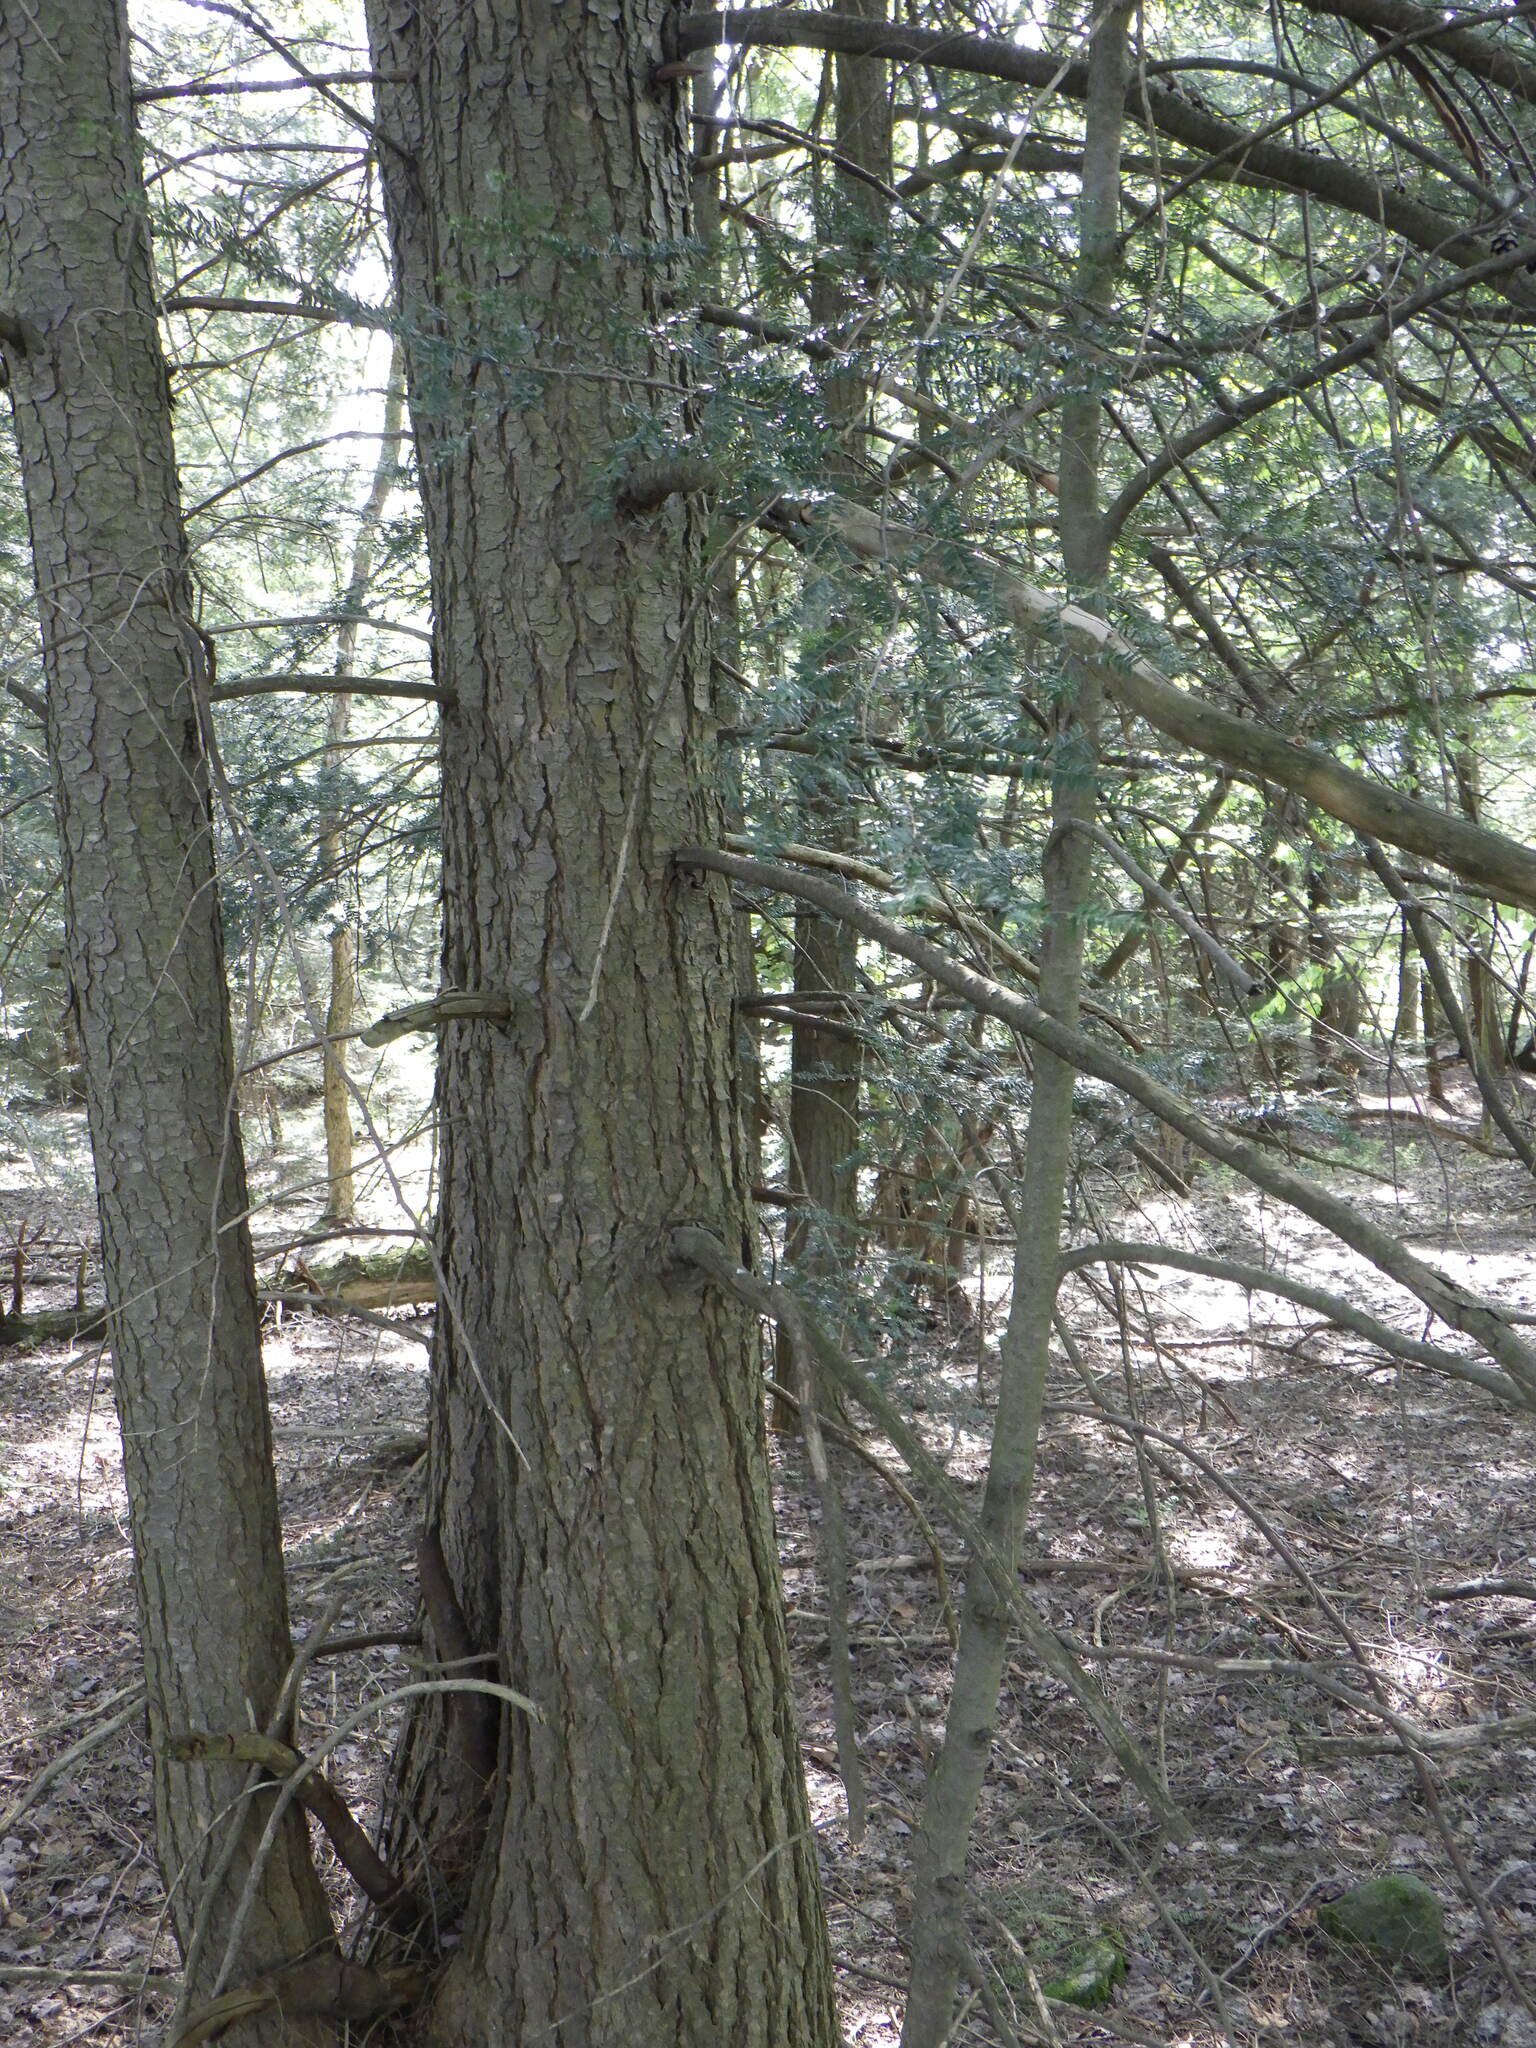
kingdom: Plantae
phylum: Tracheophyta
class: Pinopsida
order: Pinales
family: Pinaceae
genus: Tsuga
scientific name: Tsuga canadensis
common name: Eastern hemlock
